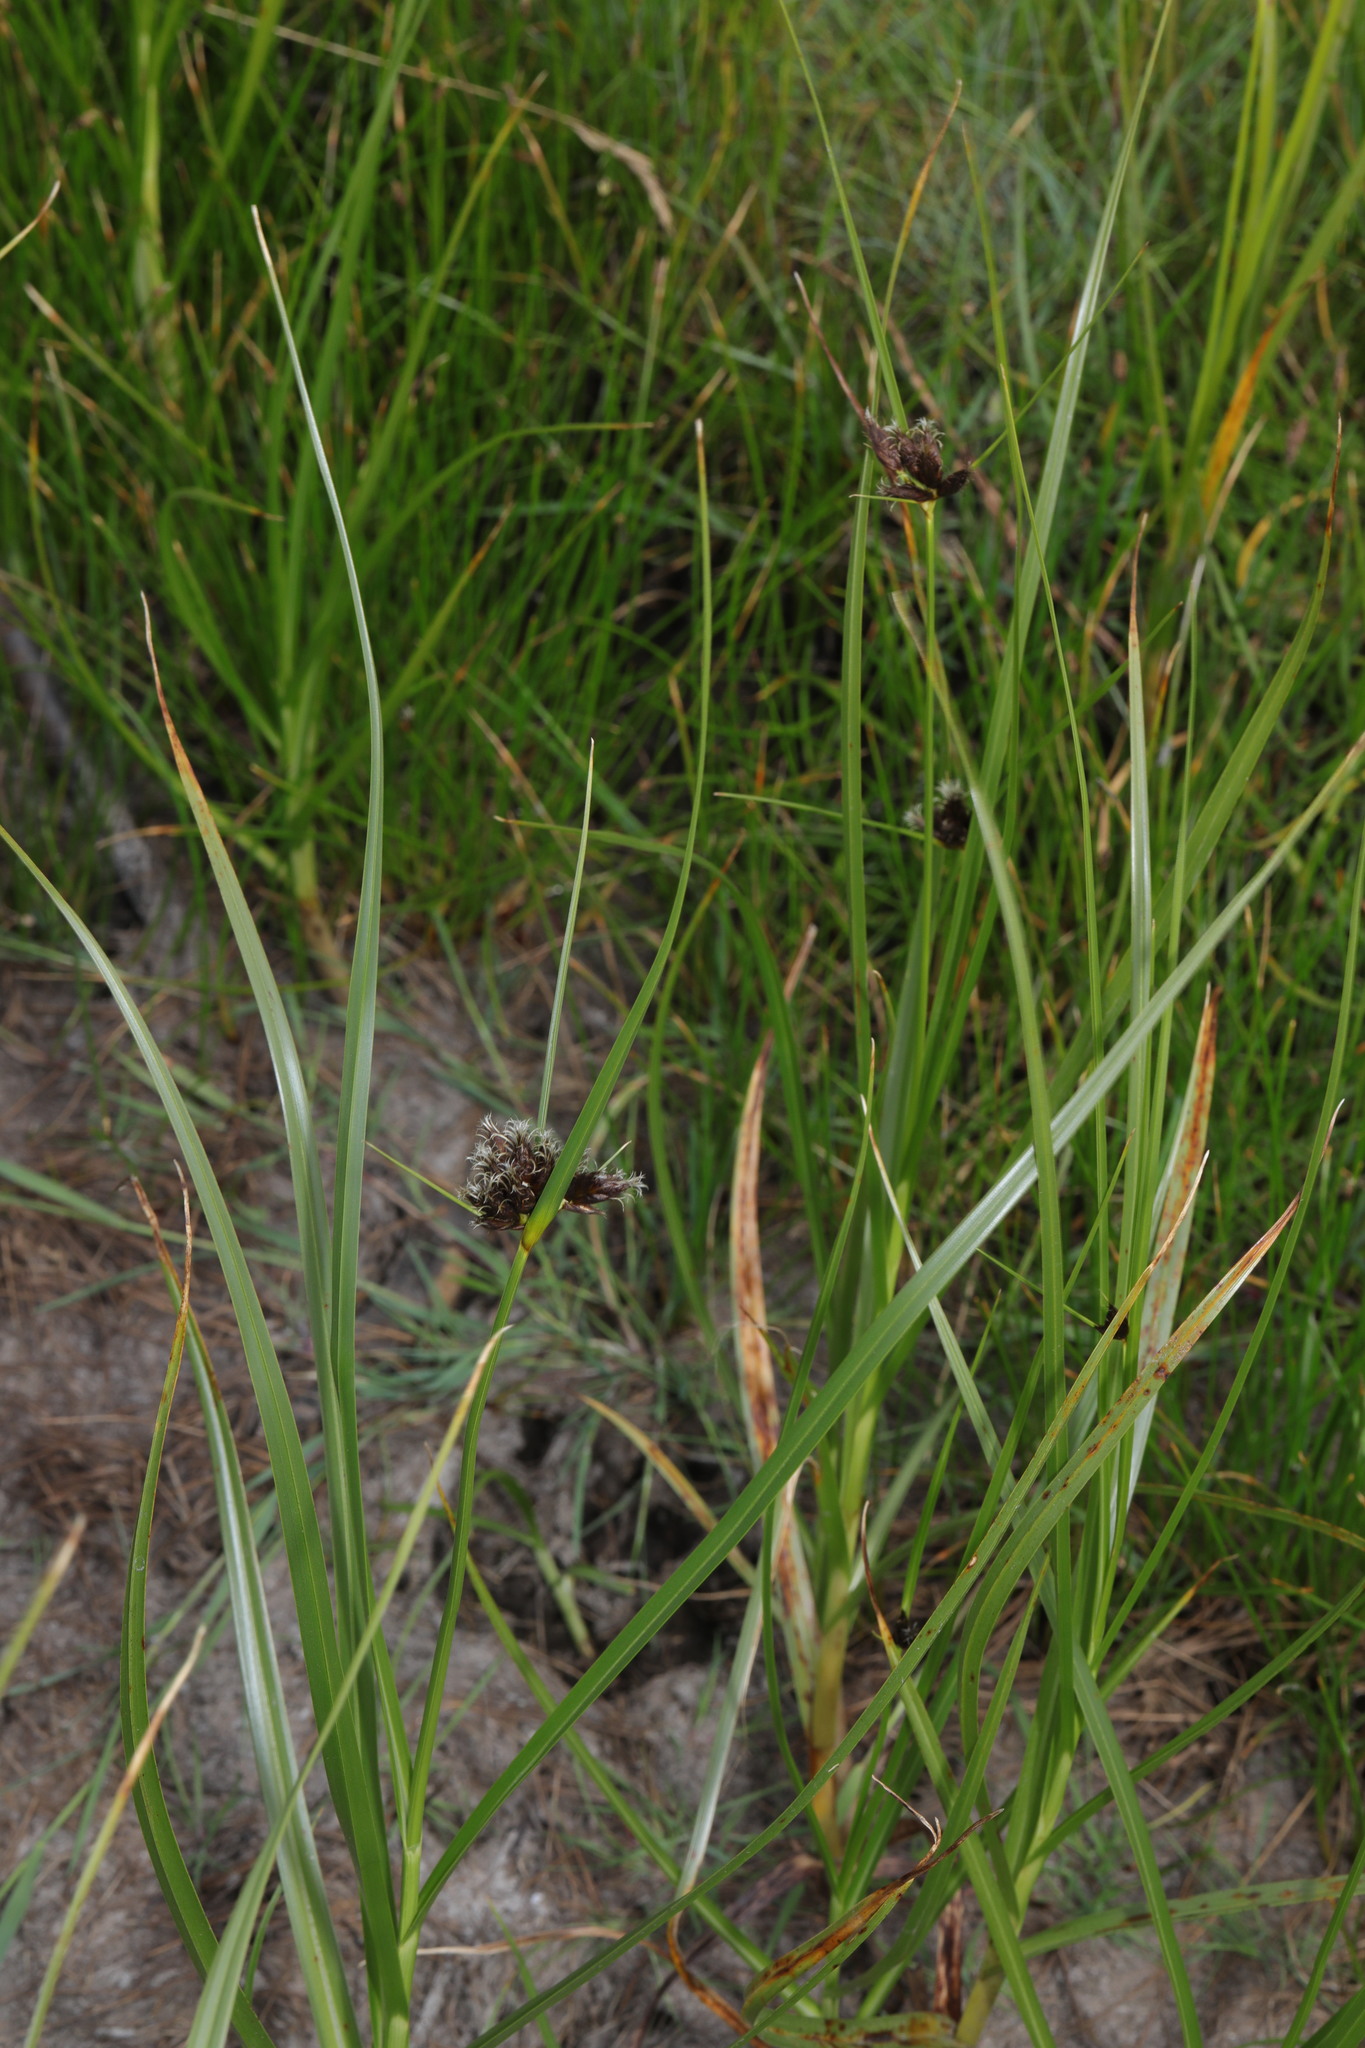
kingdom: Plantae
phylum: Tracheophyta
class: Liliopsida
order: Poales
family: Cyperaceae
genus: Bolboschoenus
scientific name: Bolboschoenus maritimus
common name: Sea club-rush
